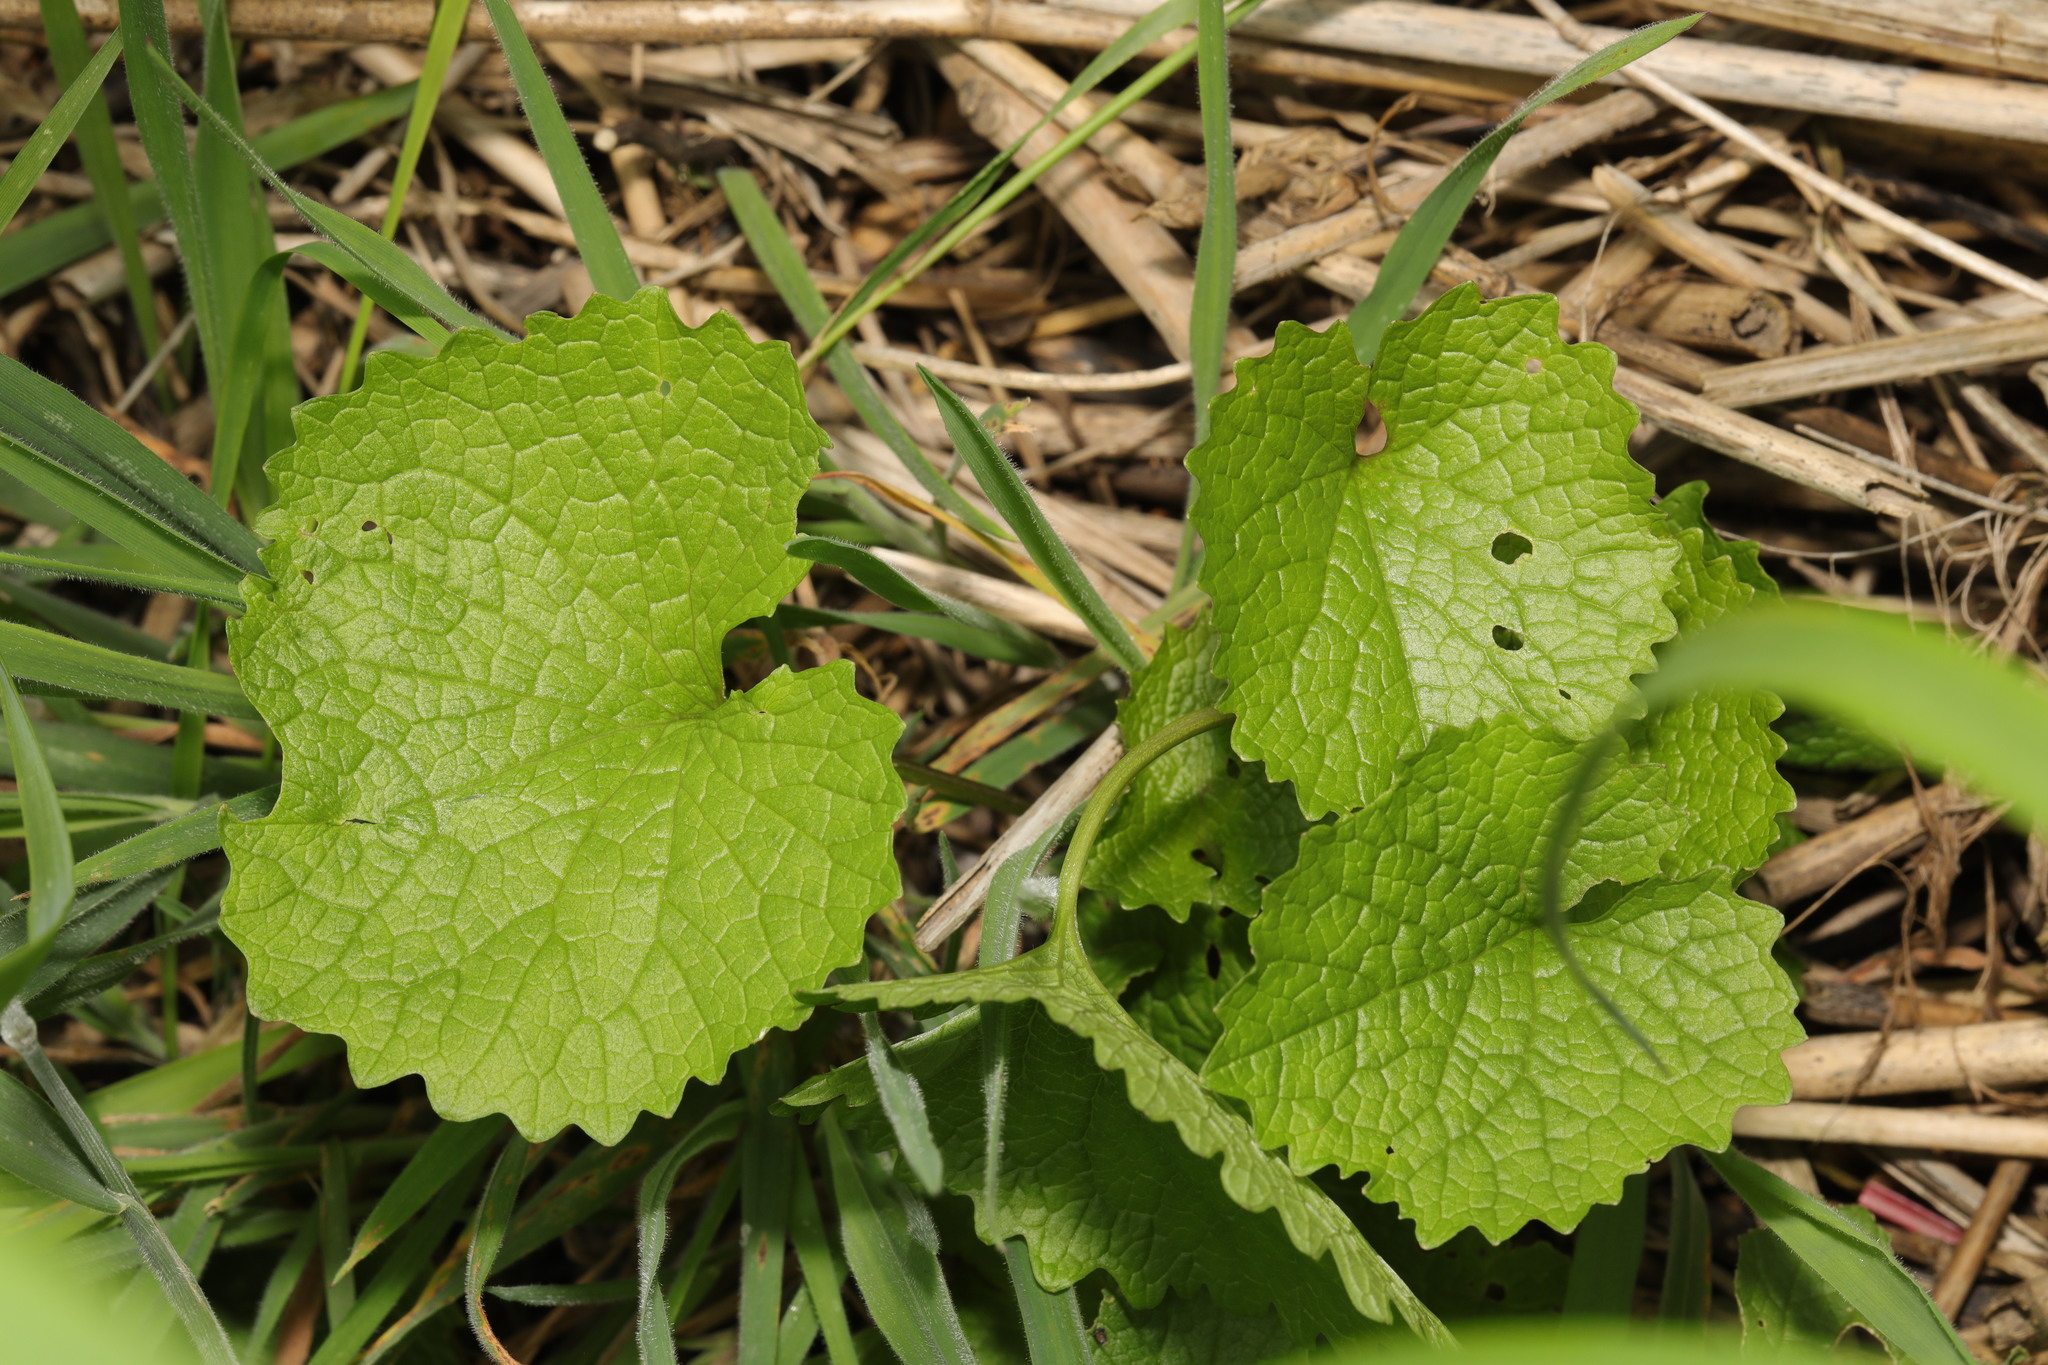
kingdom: Plantae
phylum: Tracheophyta
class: Magnoliopsida
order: Brassicales
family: Brassicaceae
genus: Alliaria
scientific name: Alliaria petiolata
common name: Garlic mustard
